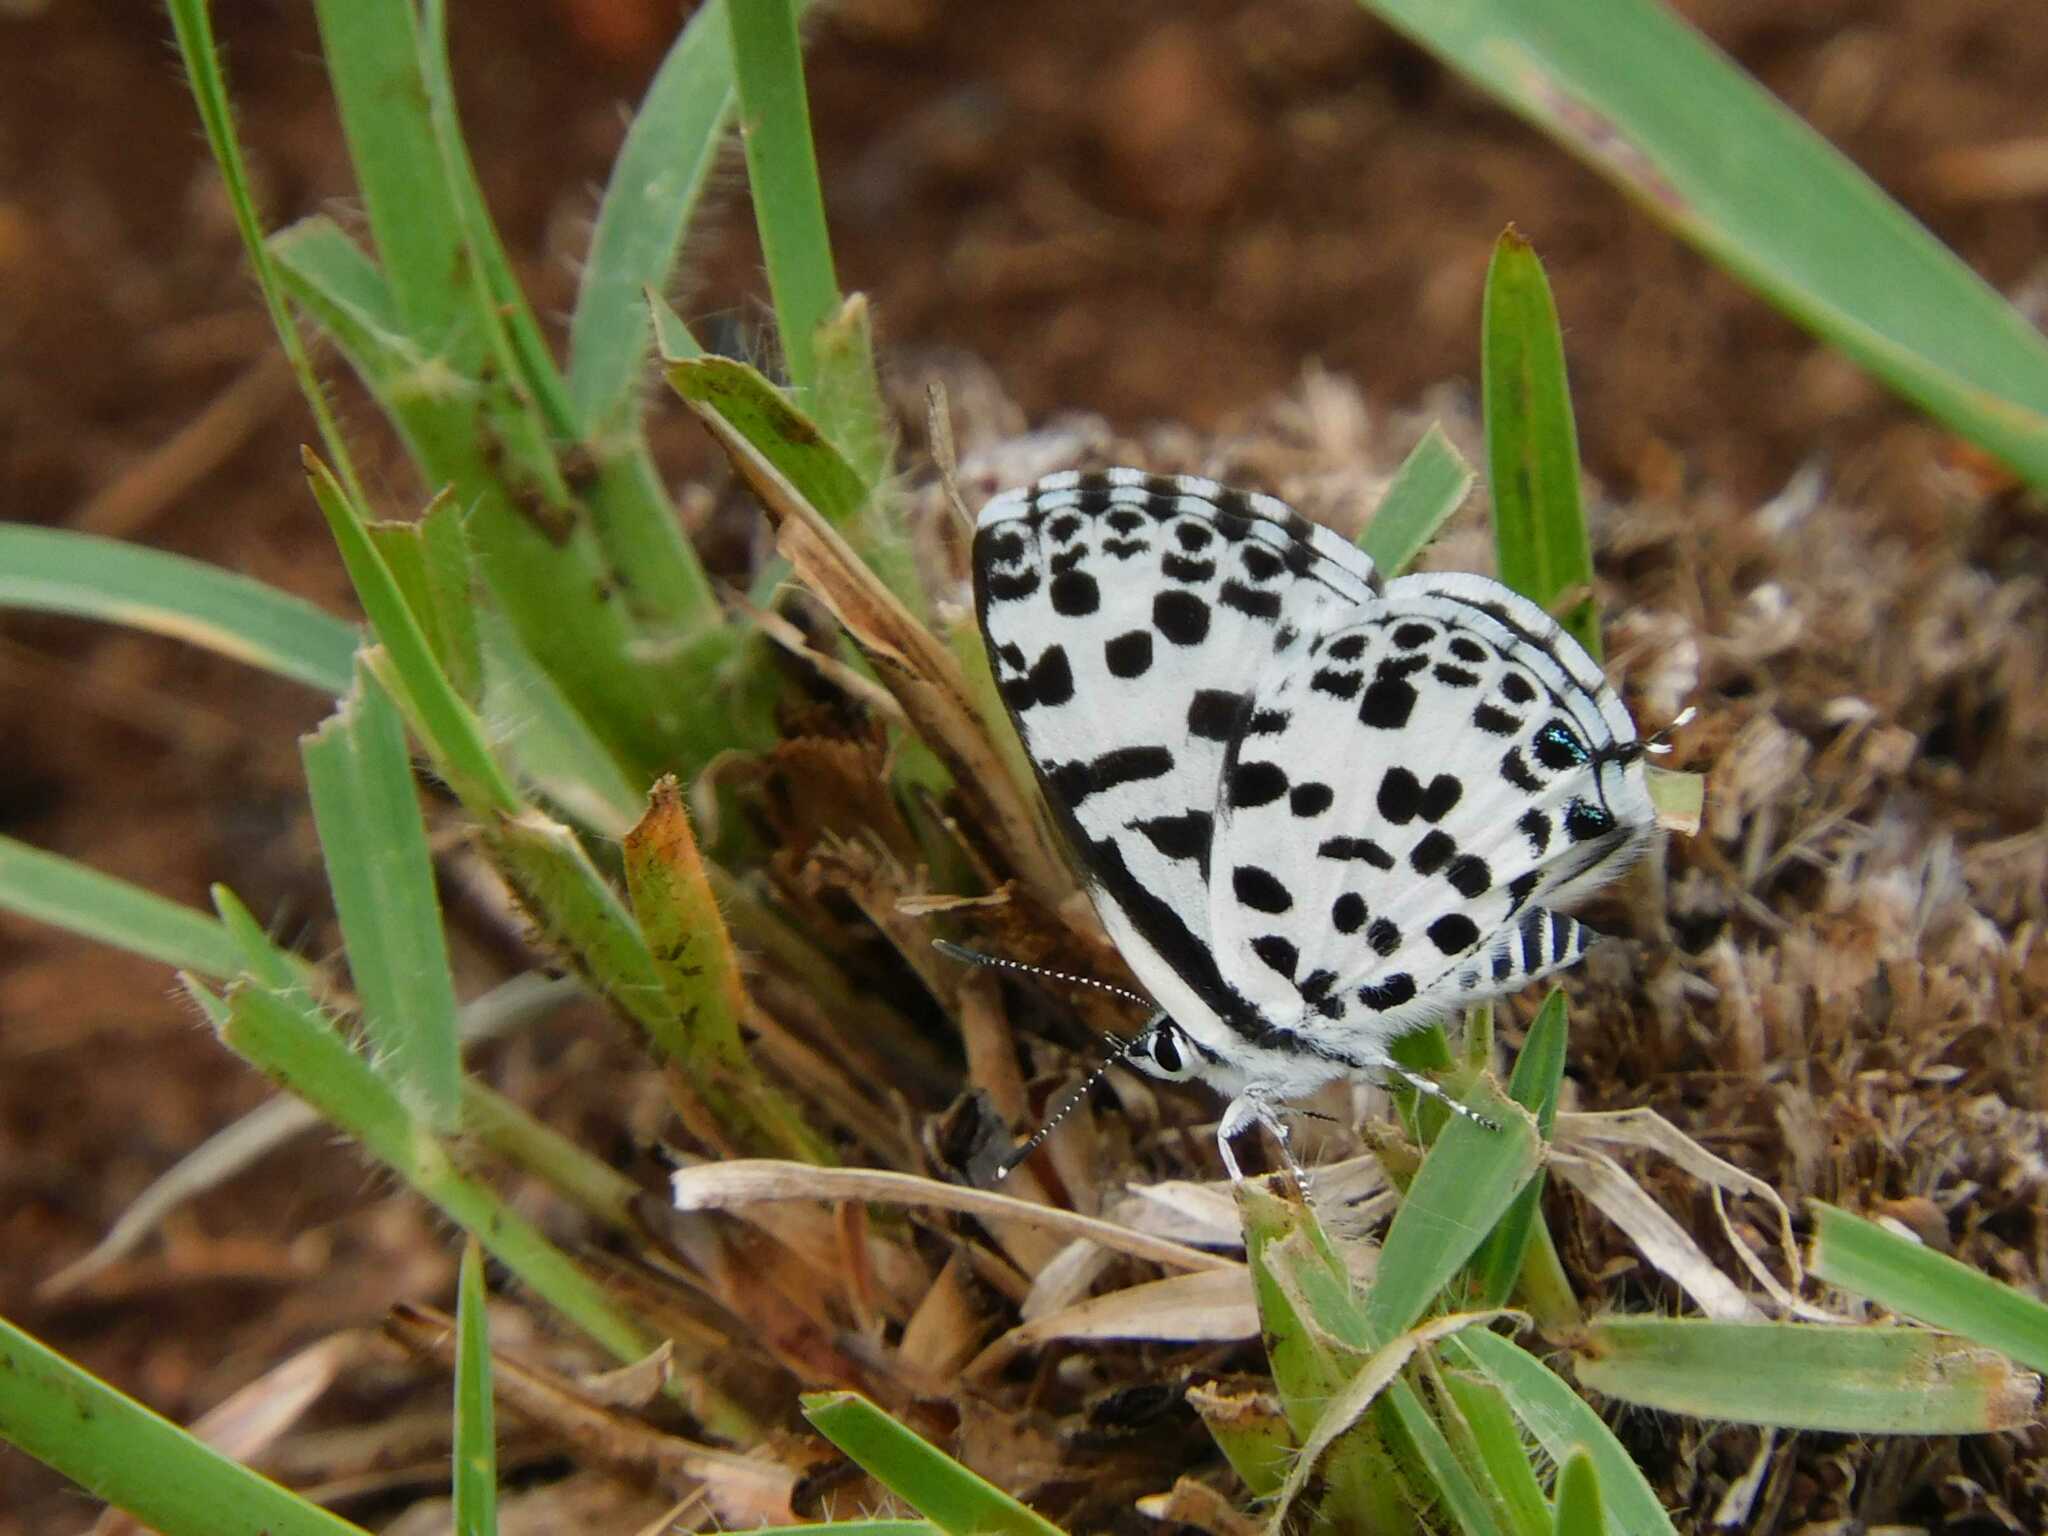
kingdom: Animalia
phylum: Arthropoda
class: Insecta
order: Lepidoptera
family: Lycaenidae
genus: Zintha
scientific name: Zintha hintza
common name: Hintza pierrot
